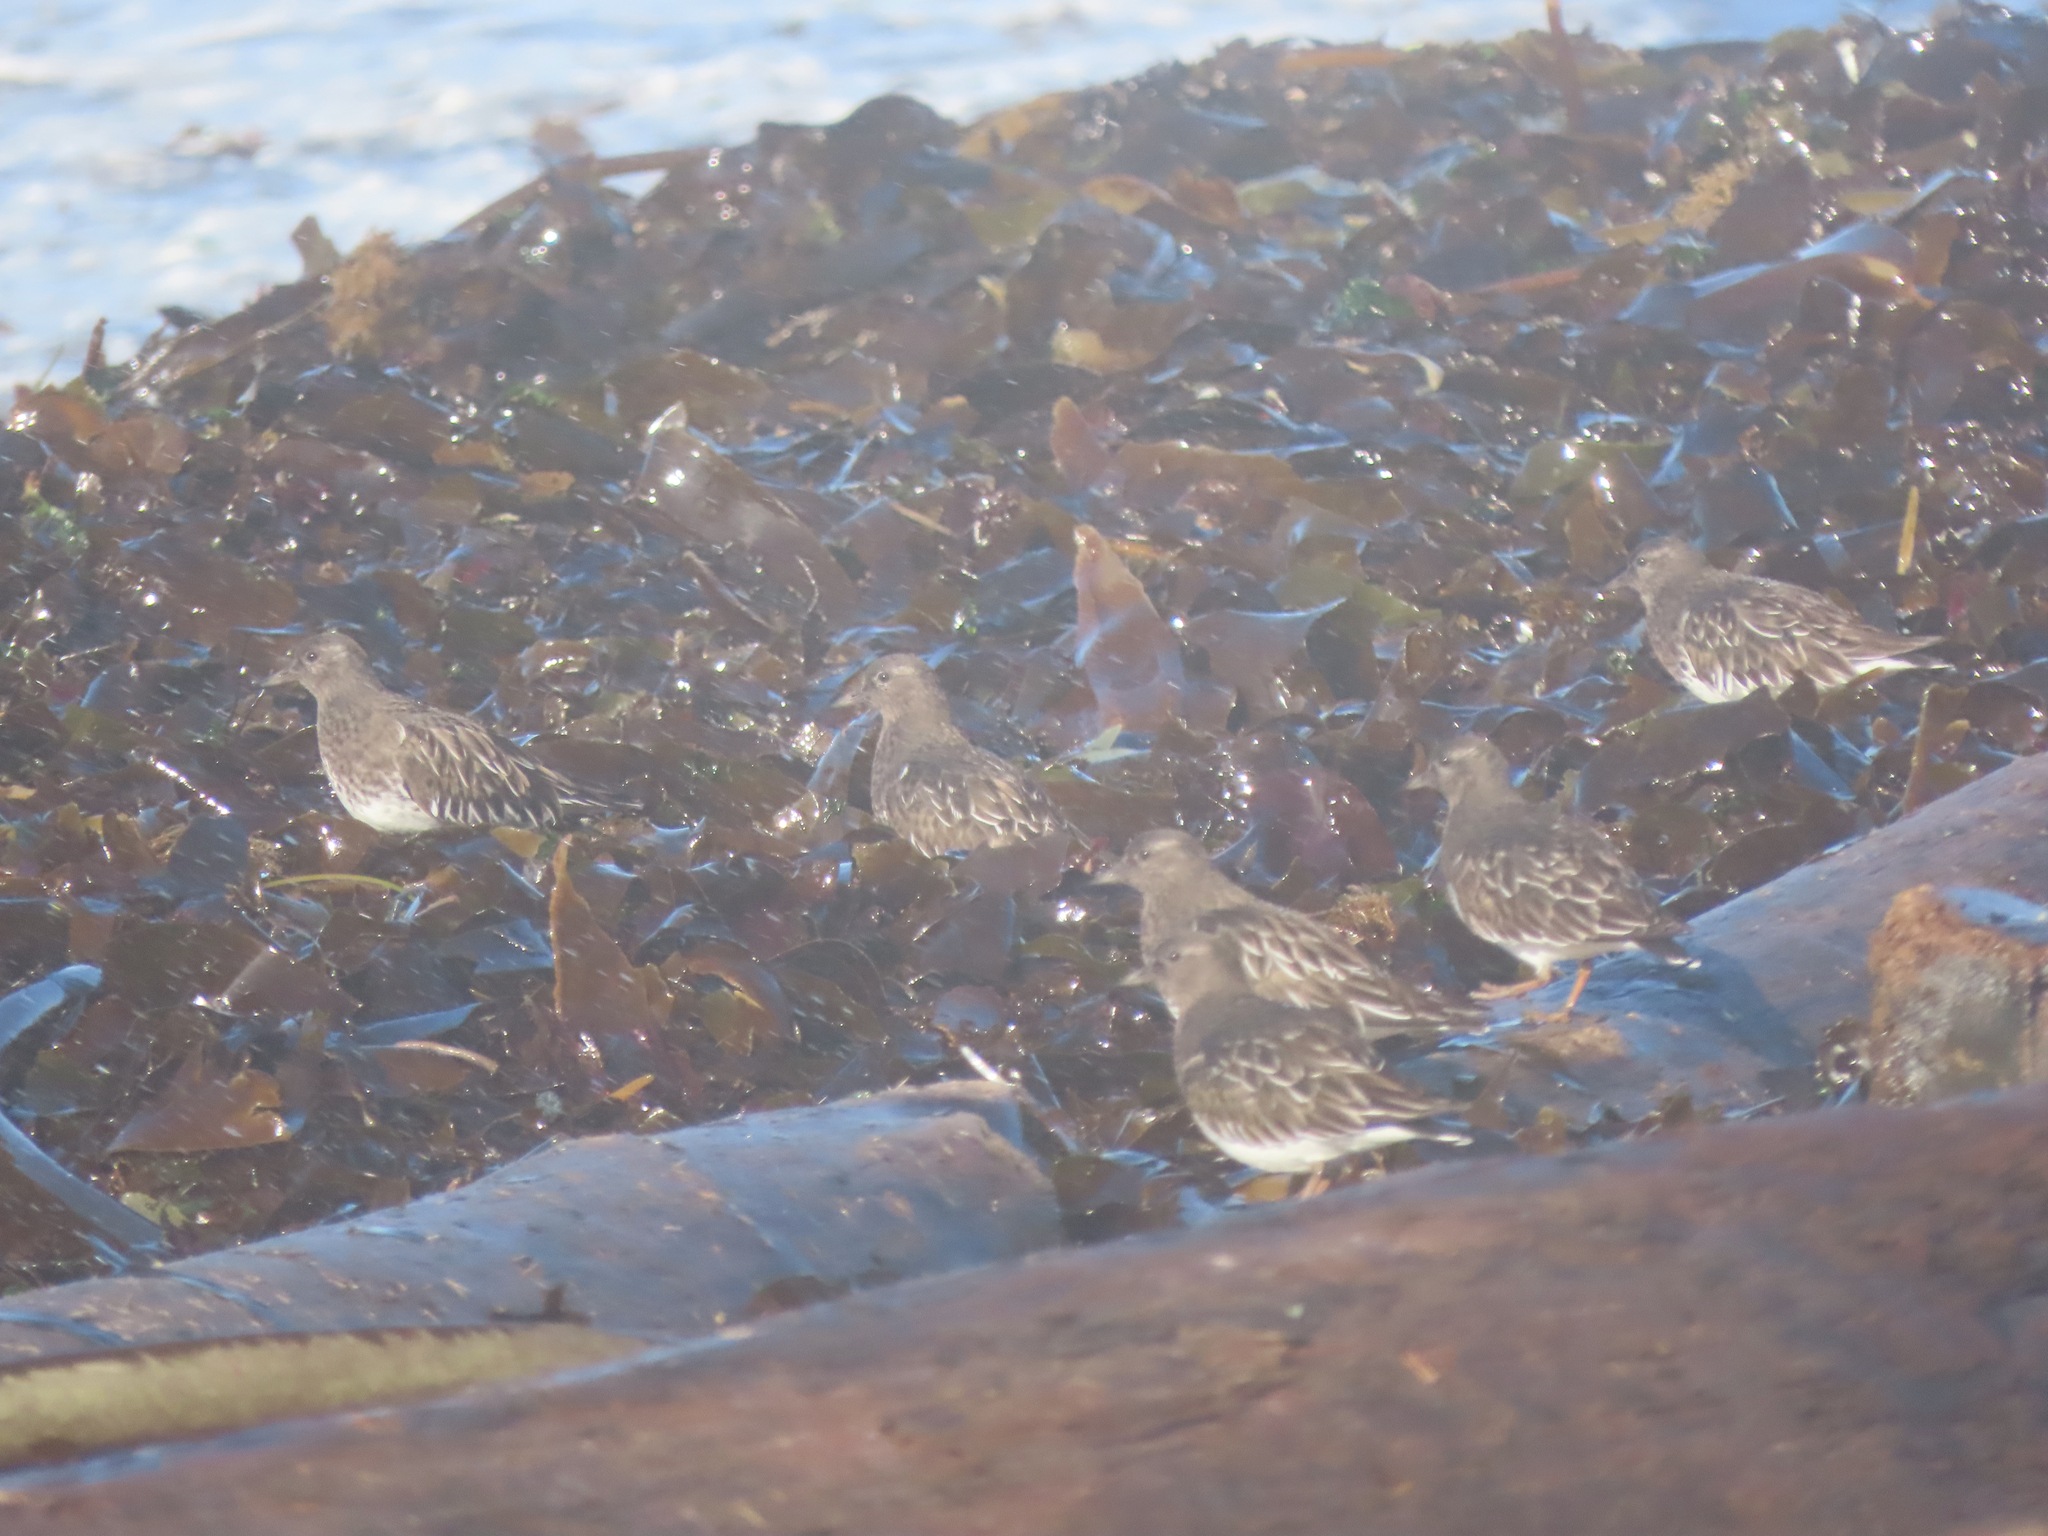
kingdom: Animalia
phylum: Chordata
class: Aves
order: Charadriiformes
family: Scolopacidae
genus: Arenaria
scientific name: Arenaria melanocephala
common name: Black turnstone
